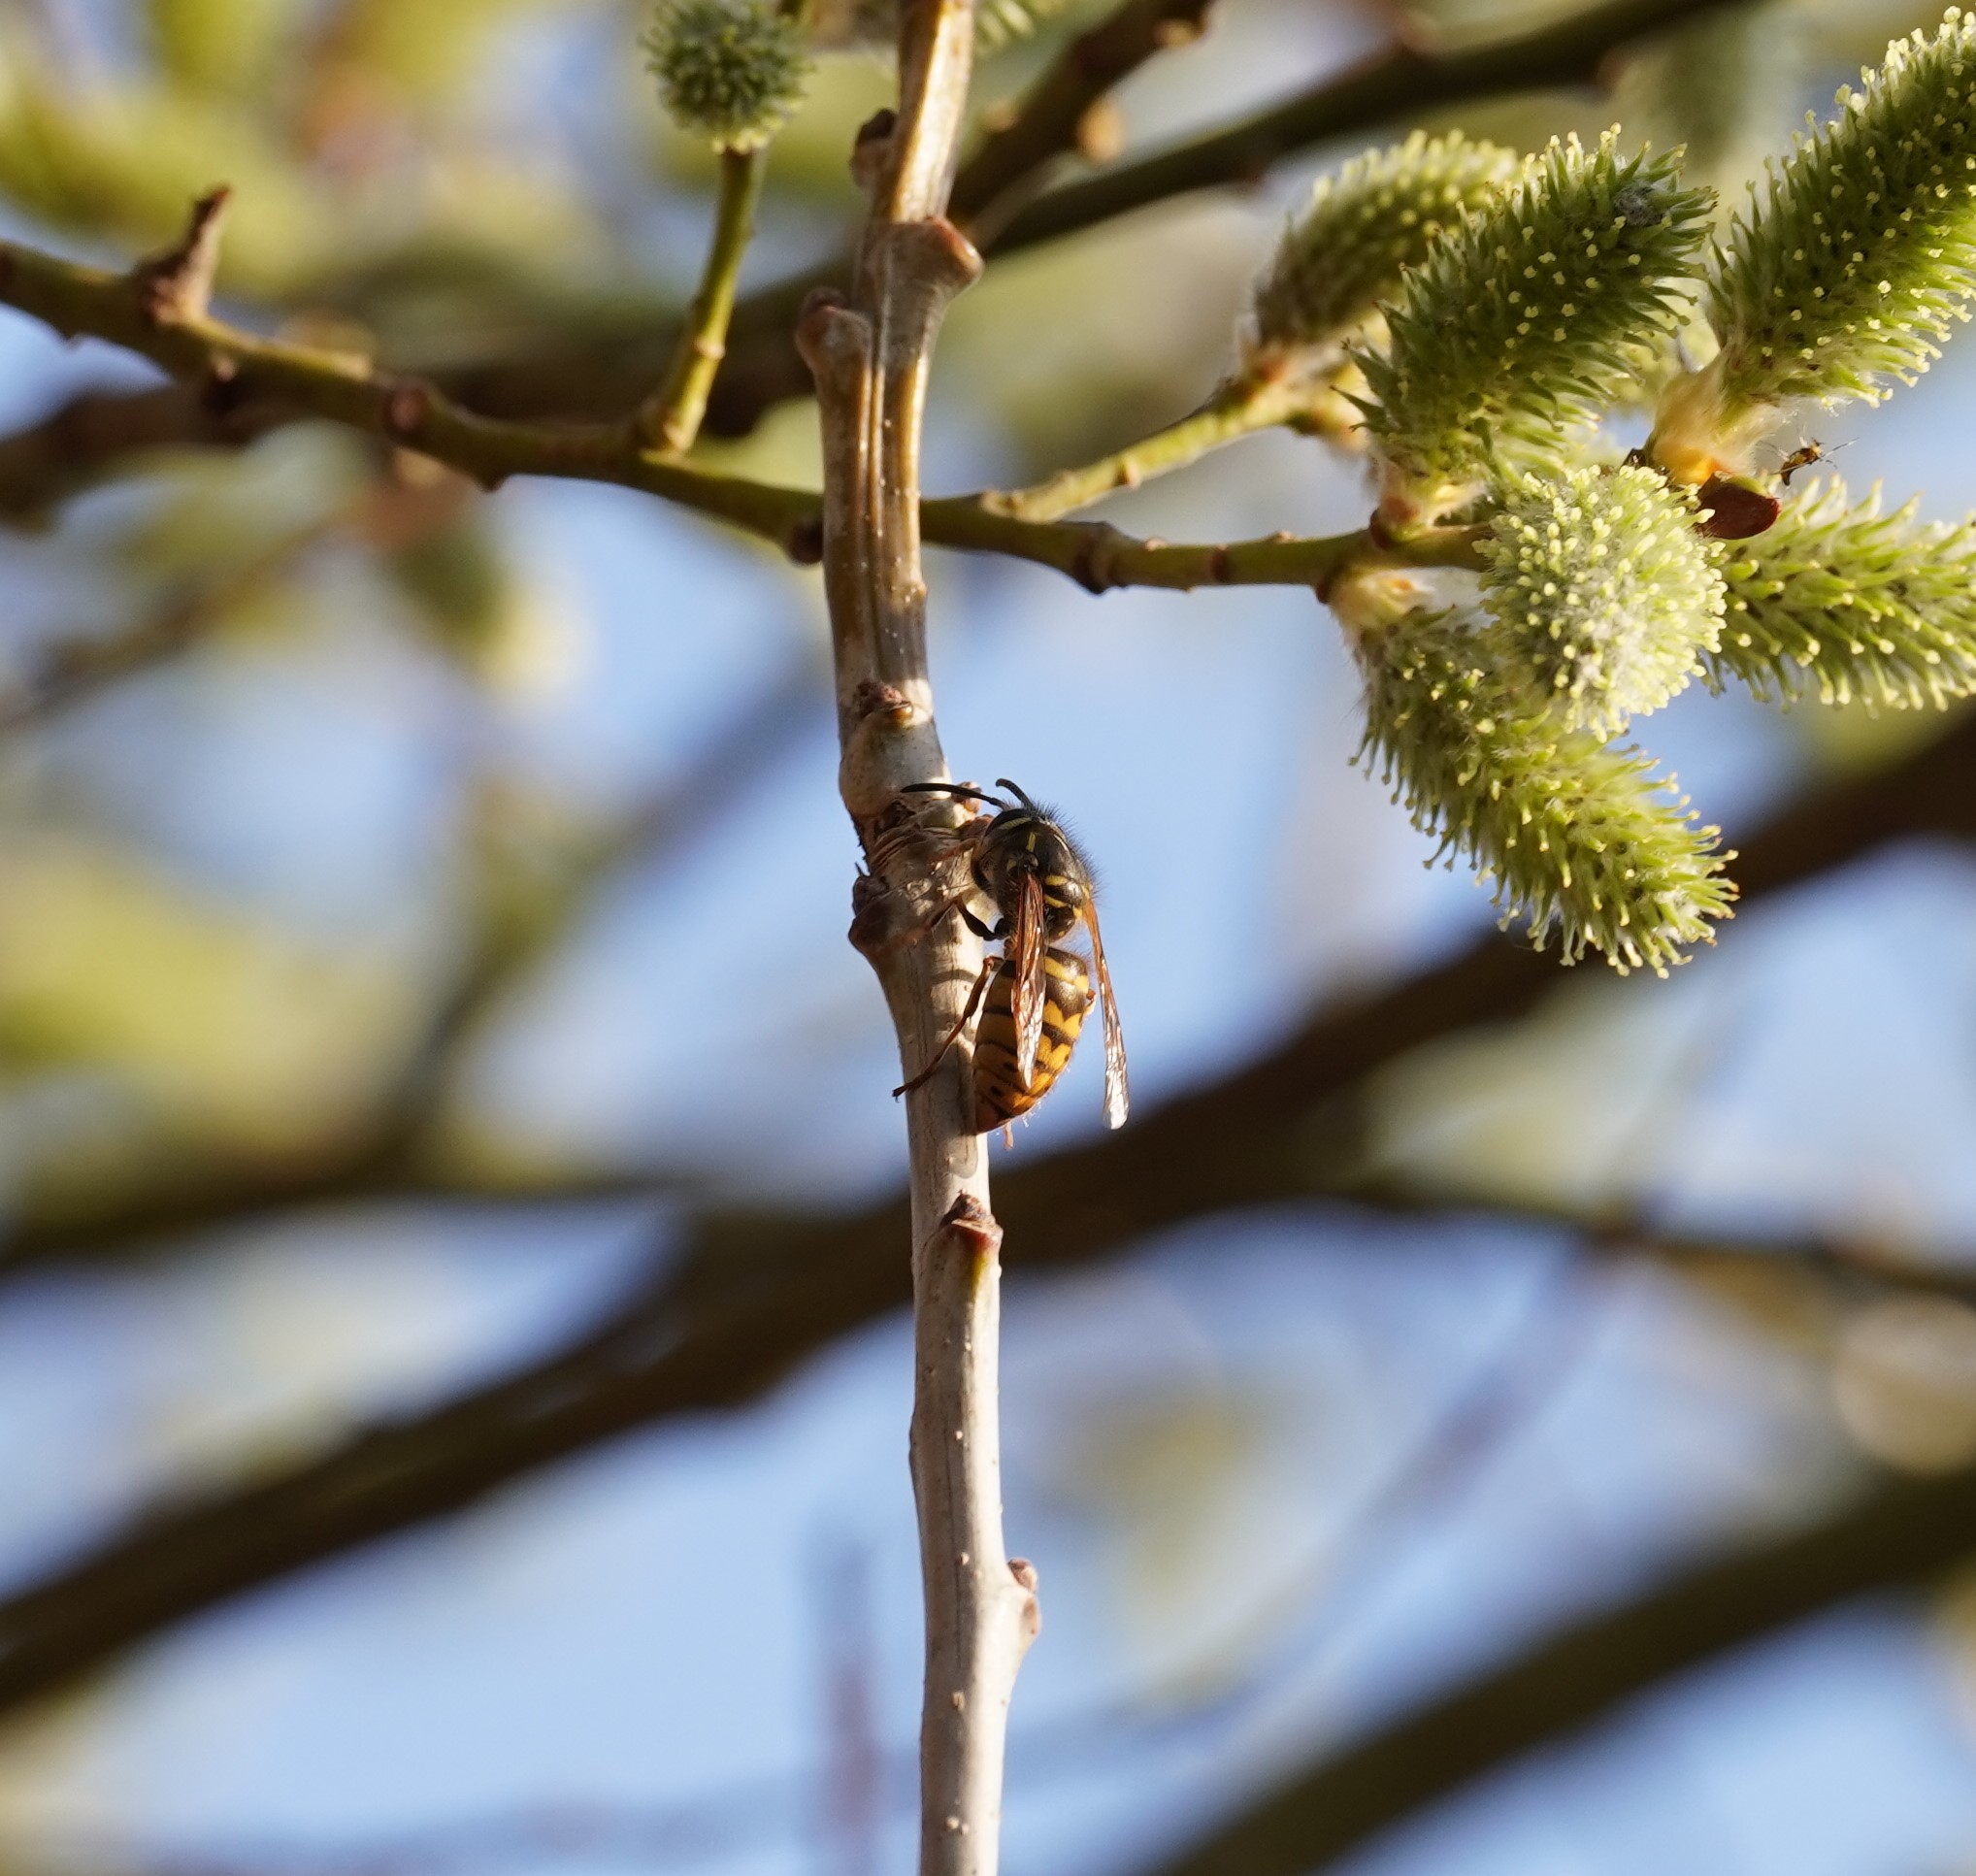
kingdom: Animalia
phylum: Arthropoda
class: Insecta
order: Hymenoptera
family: Vespidae
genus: Vespula
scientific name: Vespula vulgaris
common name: Common wasp
